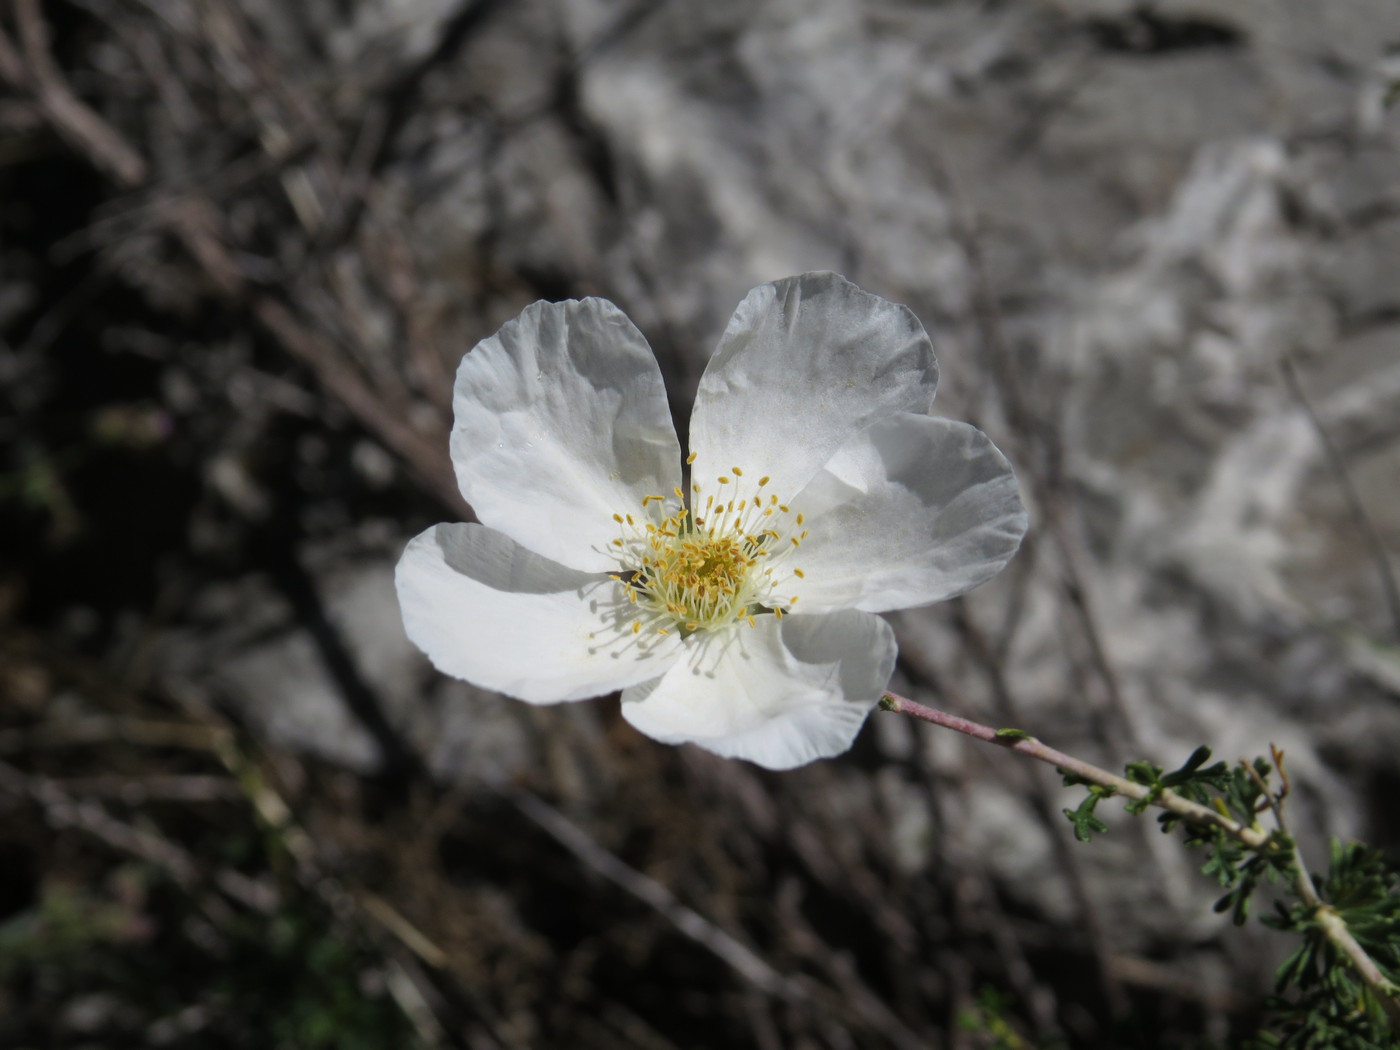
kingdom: Plantae
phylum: Tracheophyta
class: Magnoliopsida
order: Rosales
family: Rosaceae
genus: Fallugia
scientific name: Fallugia paradoxa
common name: Apache-plume
